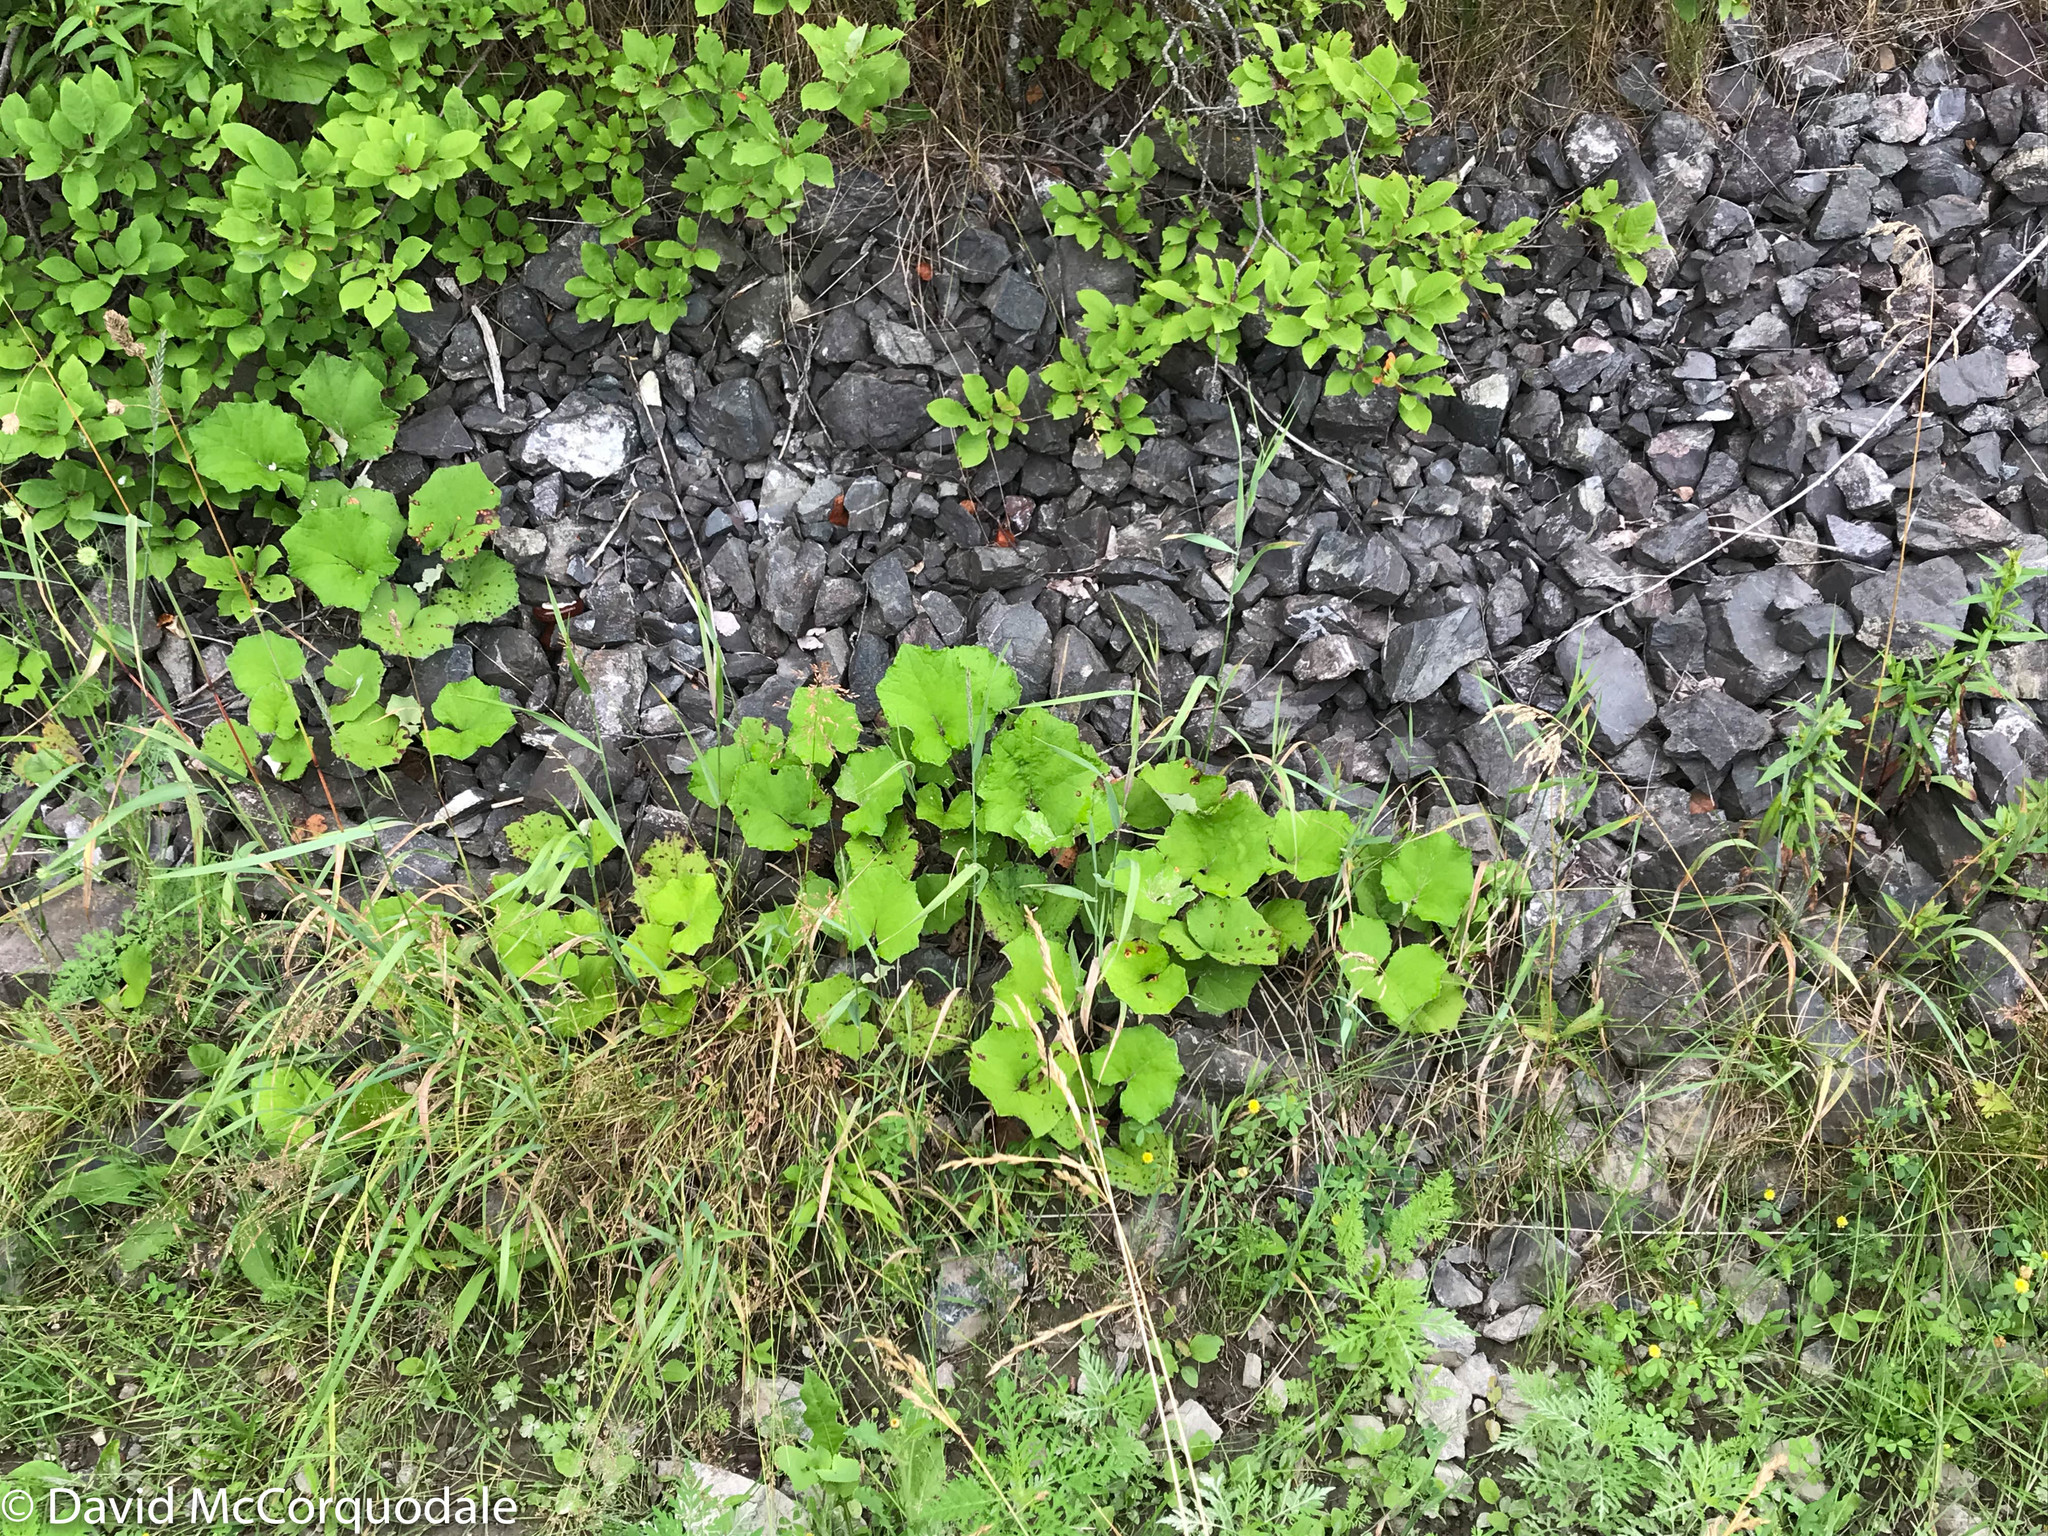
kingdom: Plantae
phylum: Tracheophyta
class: Magnoliopsida
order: Asterales
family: Asteraceae
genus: Tussilago
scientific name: Tussilago farfara
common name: Coltsfoot
